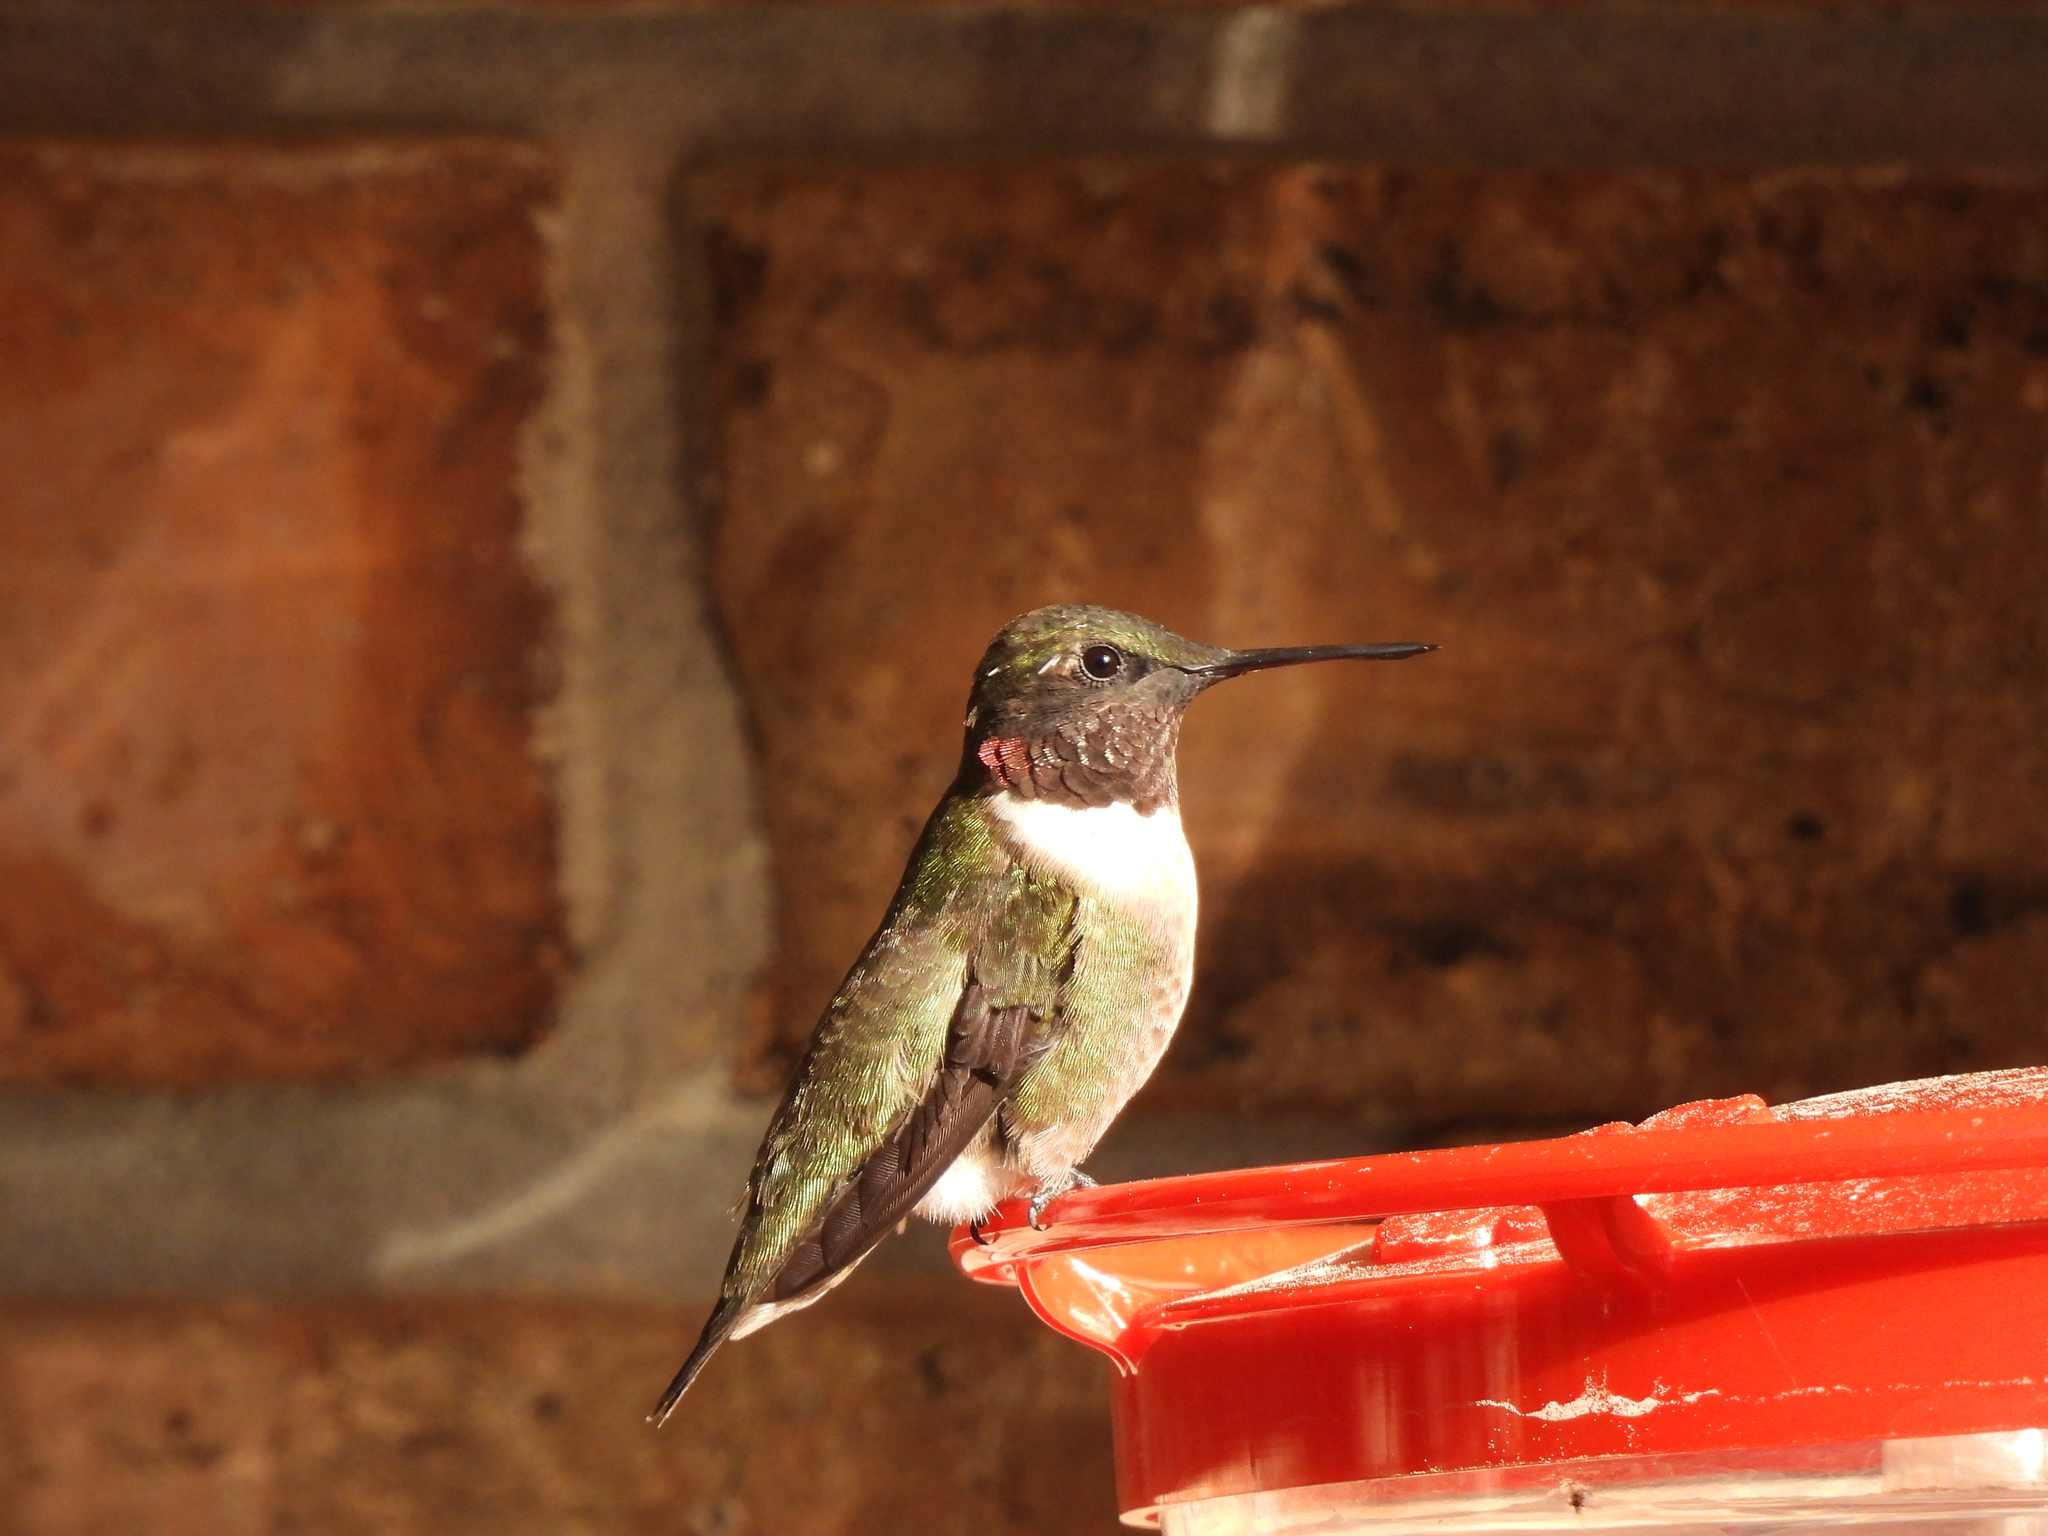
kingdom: Animalia
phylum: Chordata
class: Aves
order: Apodiformes
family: Trochilidae
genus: Archilochus
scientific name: Archilochus colubris
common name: Ruby-throated hummingbird
